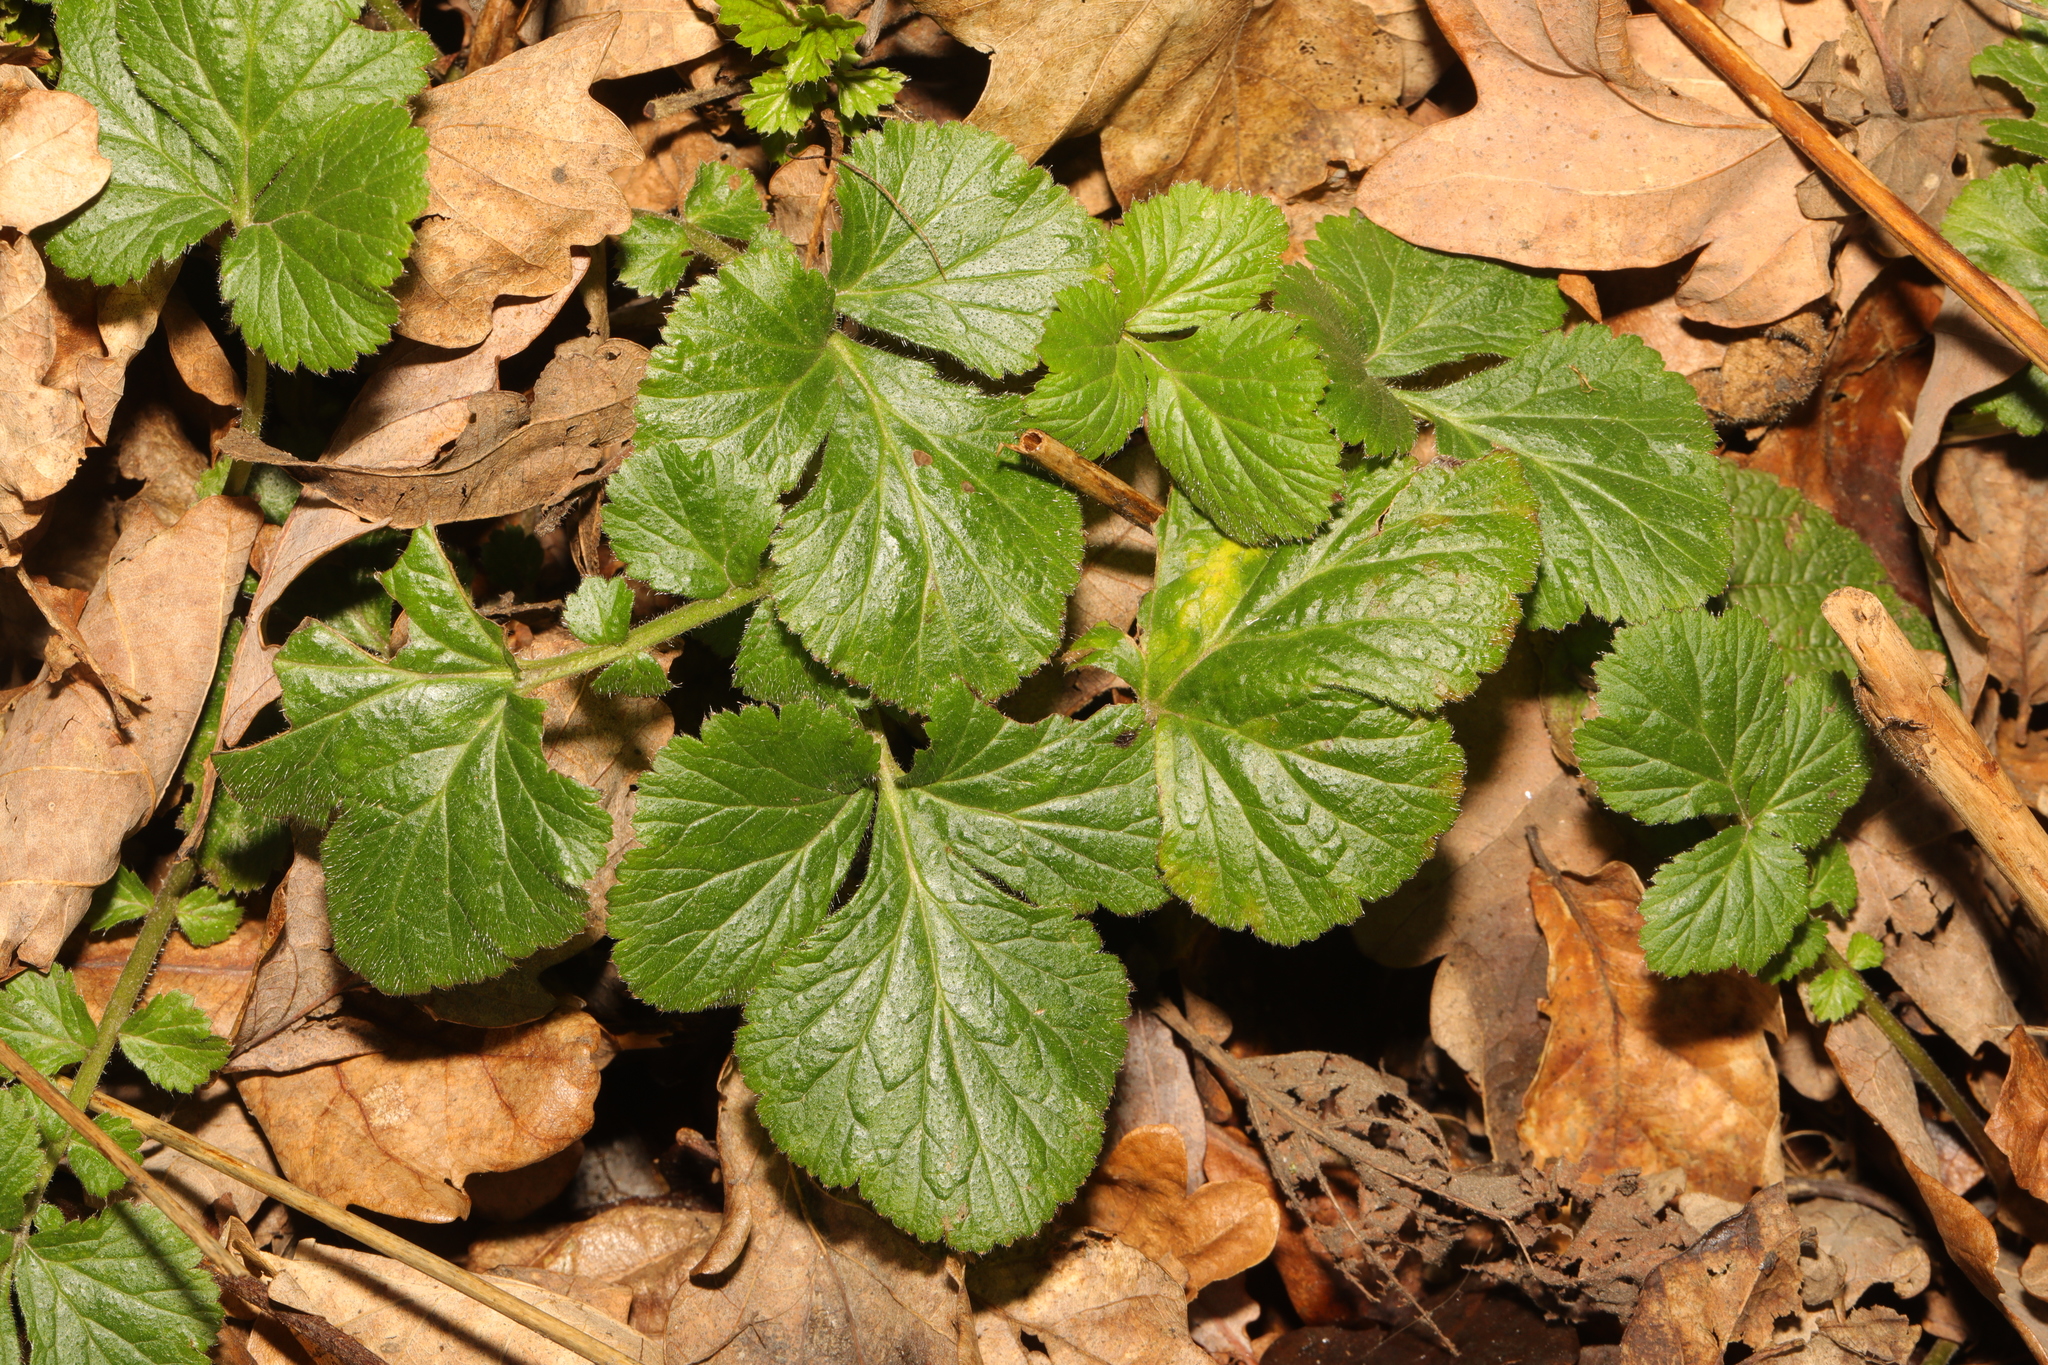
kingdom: Plantae
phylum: Tracheophyta
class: Magnoliopsida
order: Rosales
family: Rosaceae
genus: Geum
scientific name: Geum urbanum
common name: Wood avens
